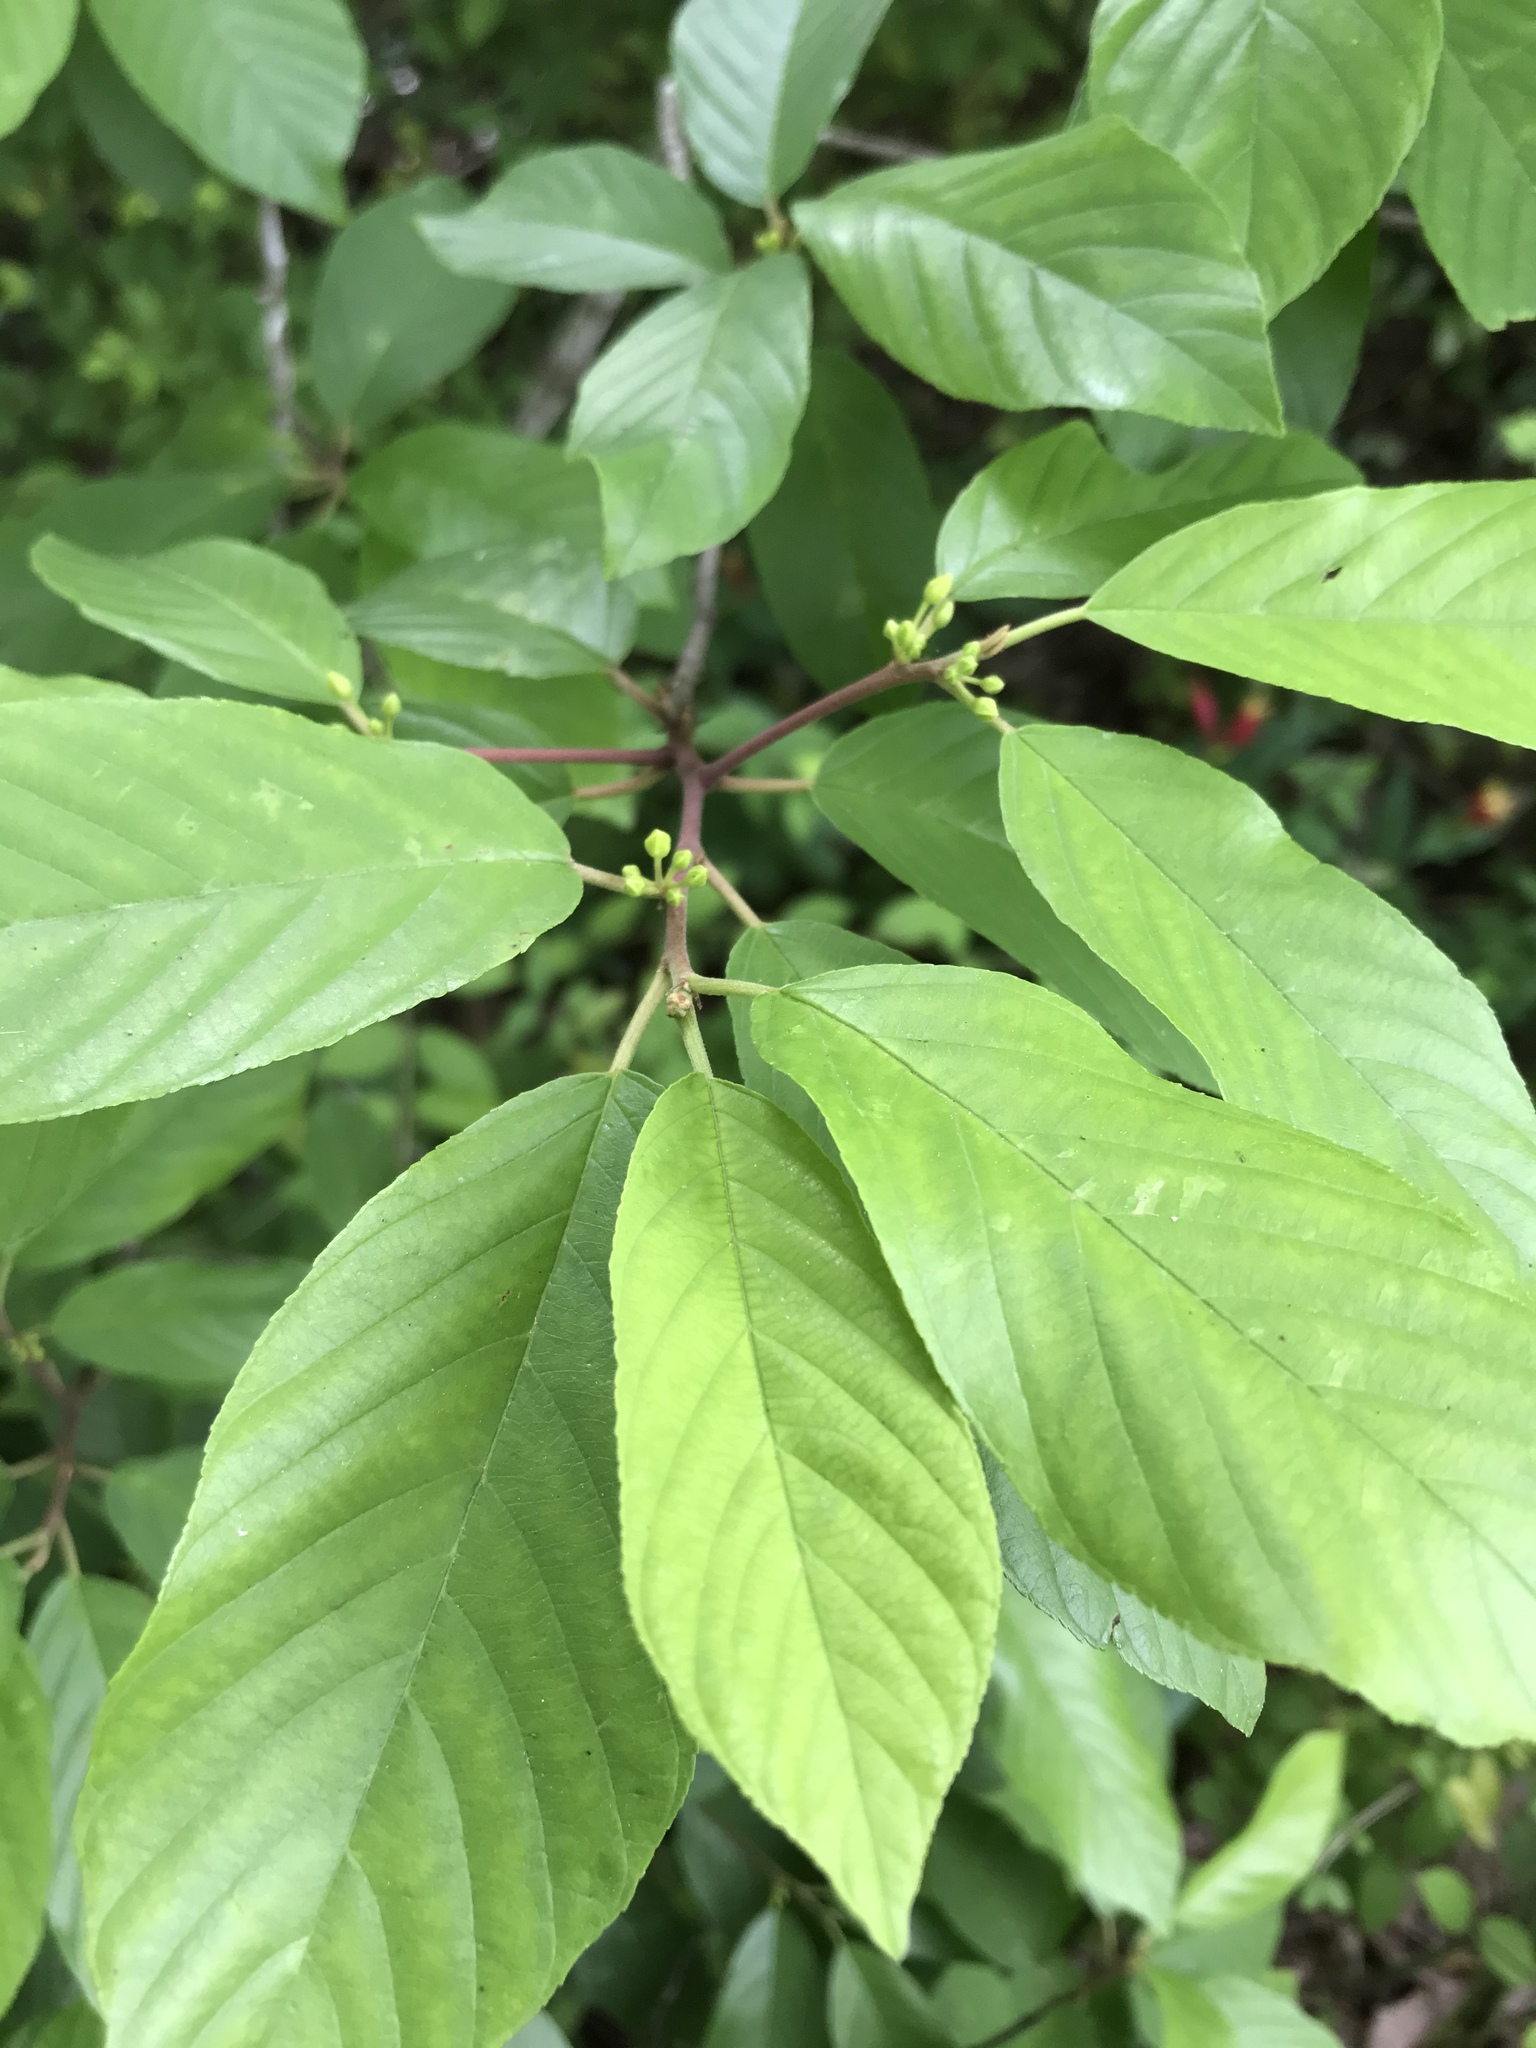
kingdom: Plantae
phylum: Tracheophyta
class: Magnoliopsida
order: Rosales
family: Rhamnaceae
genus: Frangula
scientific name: Frangula caroliniana
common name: Carolina buckthorn
